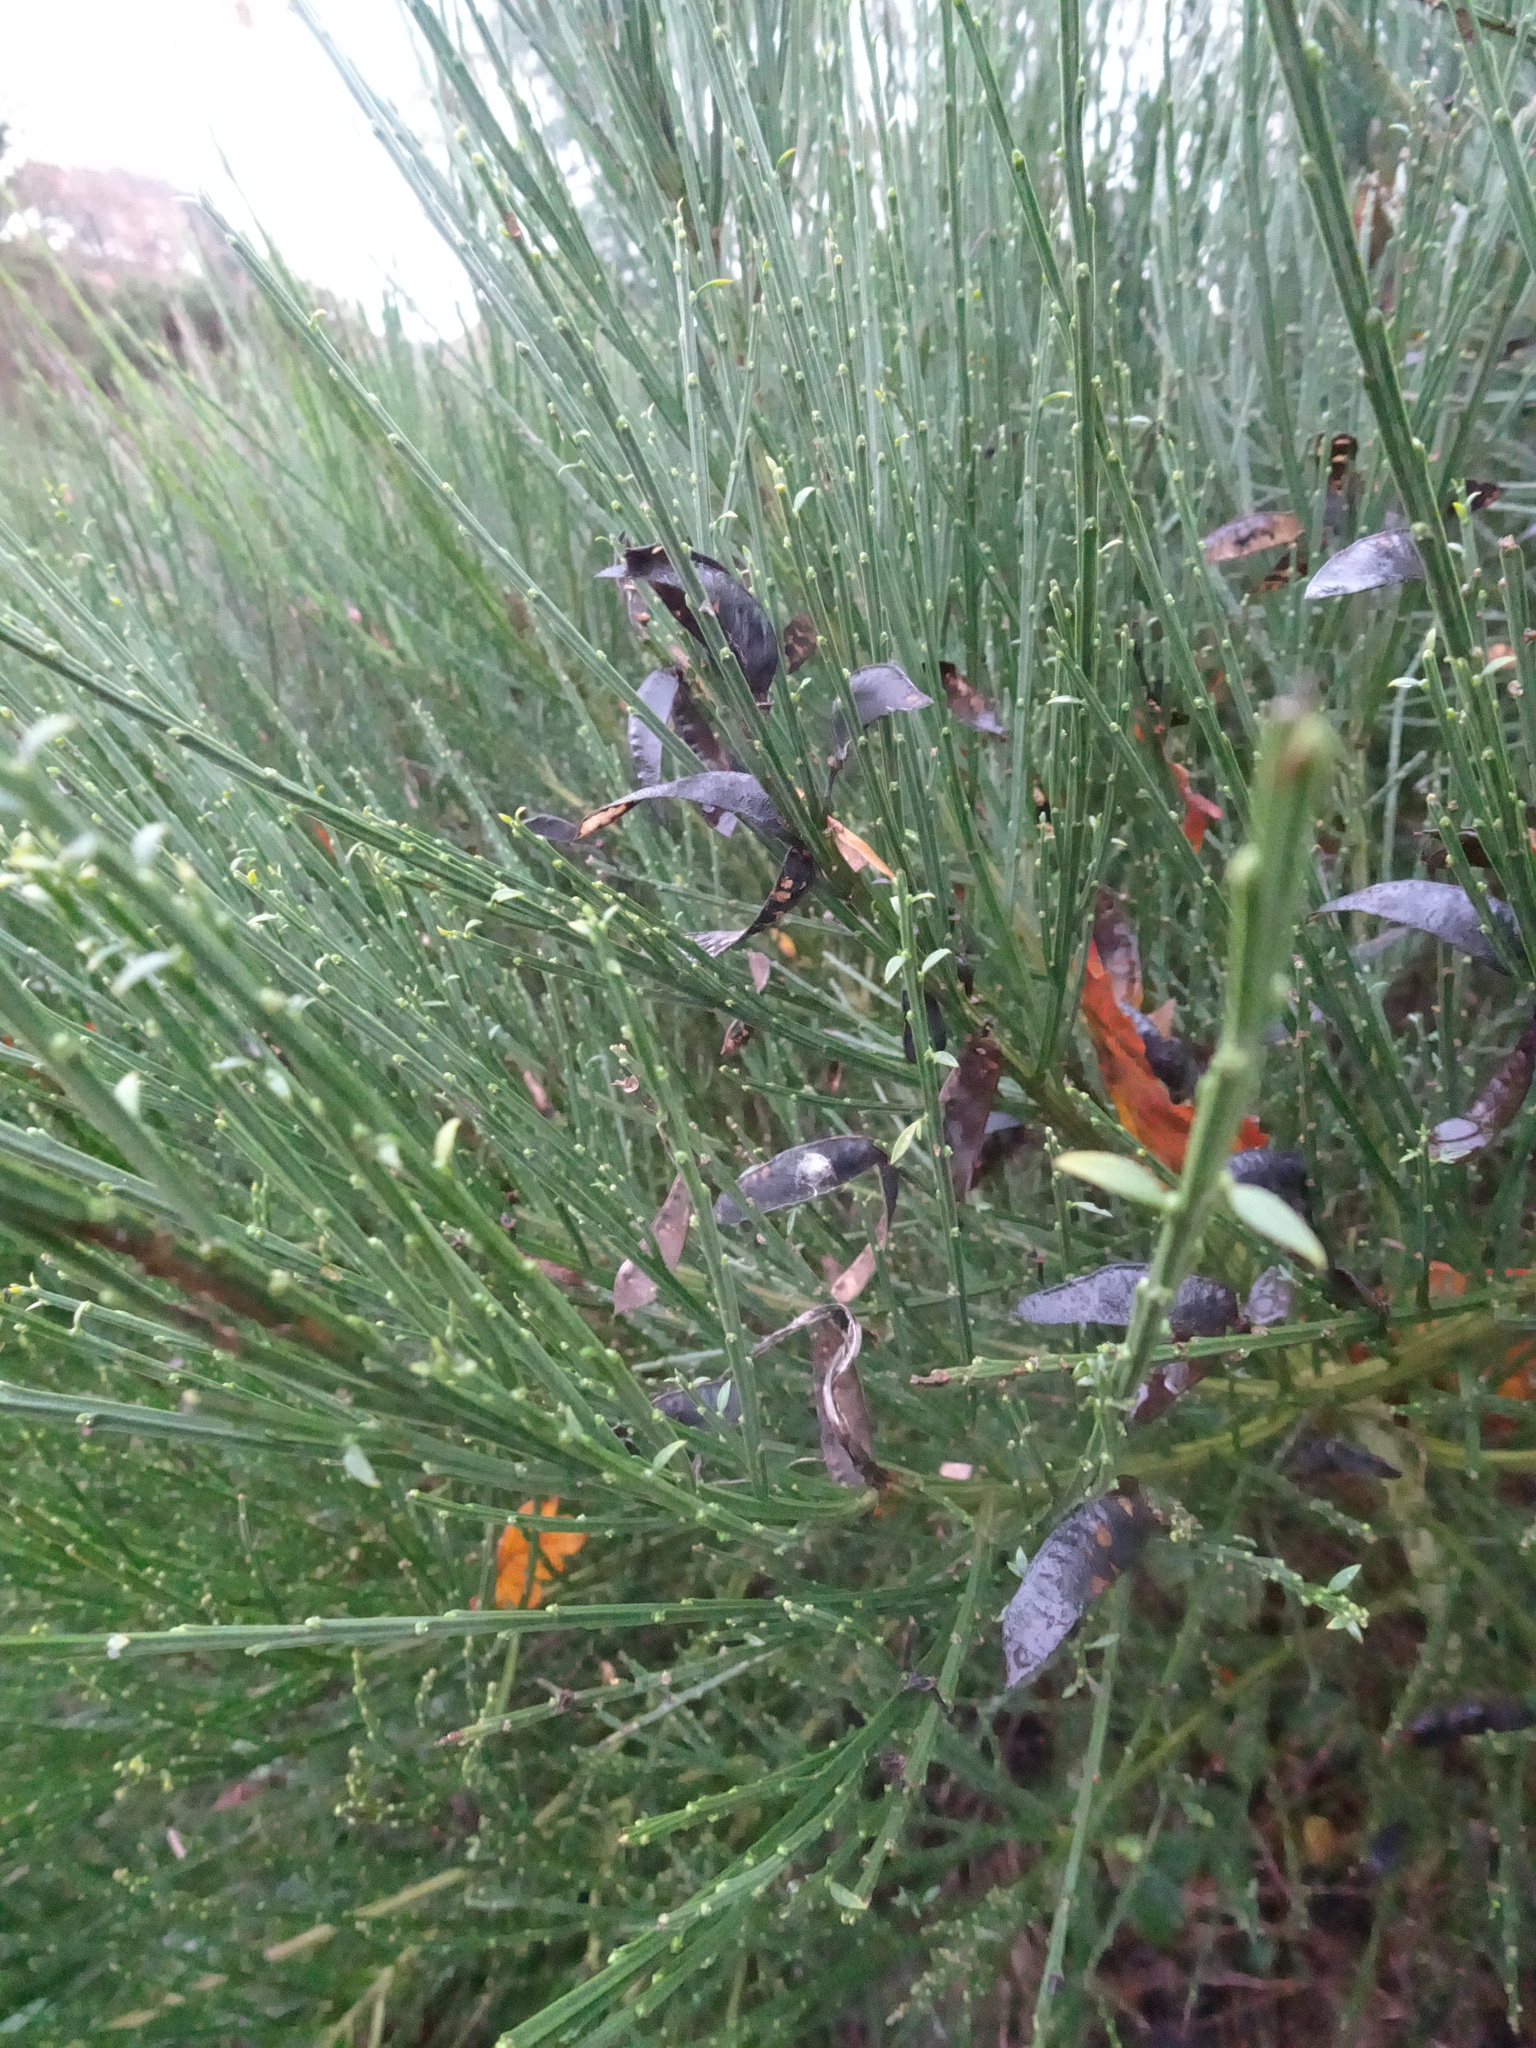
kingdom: Plantae
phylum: Tracheophyta
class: Magnoliopsida
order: Fabales
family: Fabaceae
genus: Cytisus
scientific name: Cytisus scoparius
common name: Scotch broom
